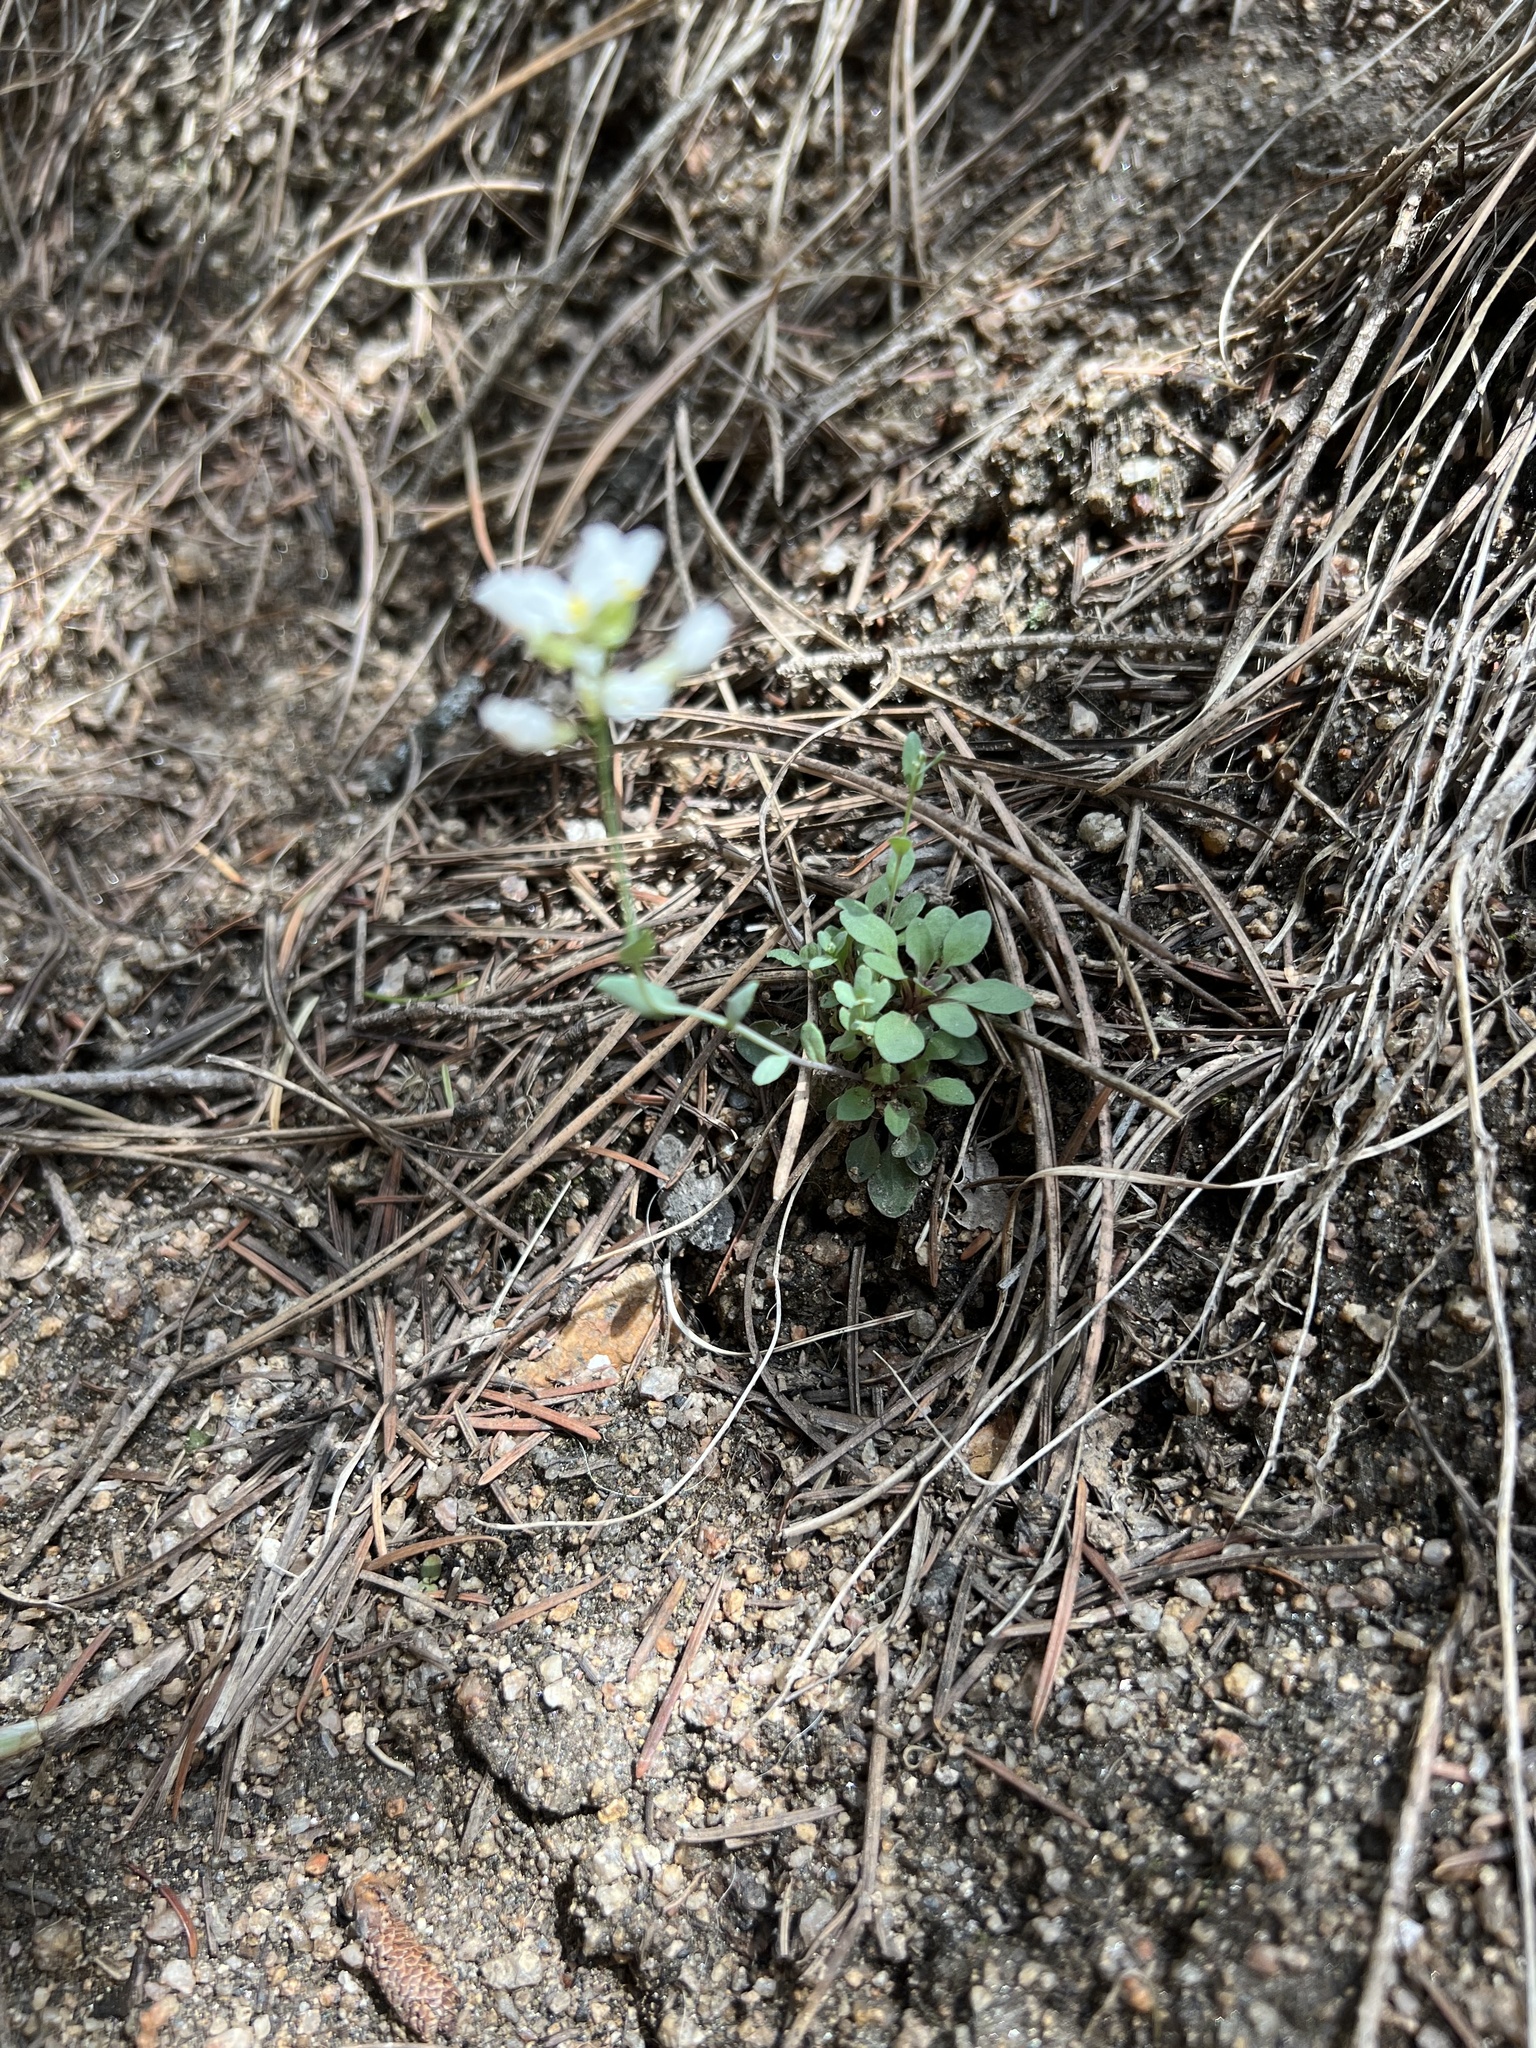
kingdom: Plantae
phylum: Tracheophyta
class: Magnoliopsida
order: Brassicales
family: Brassicaceae
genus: Noccaea
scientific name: Noccaea fendleri
